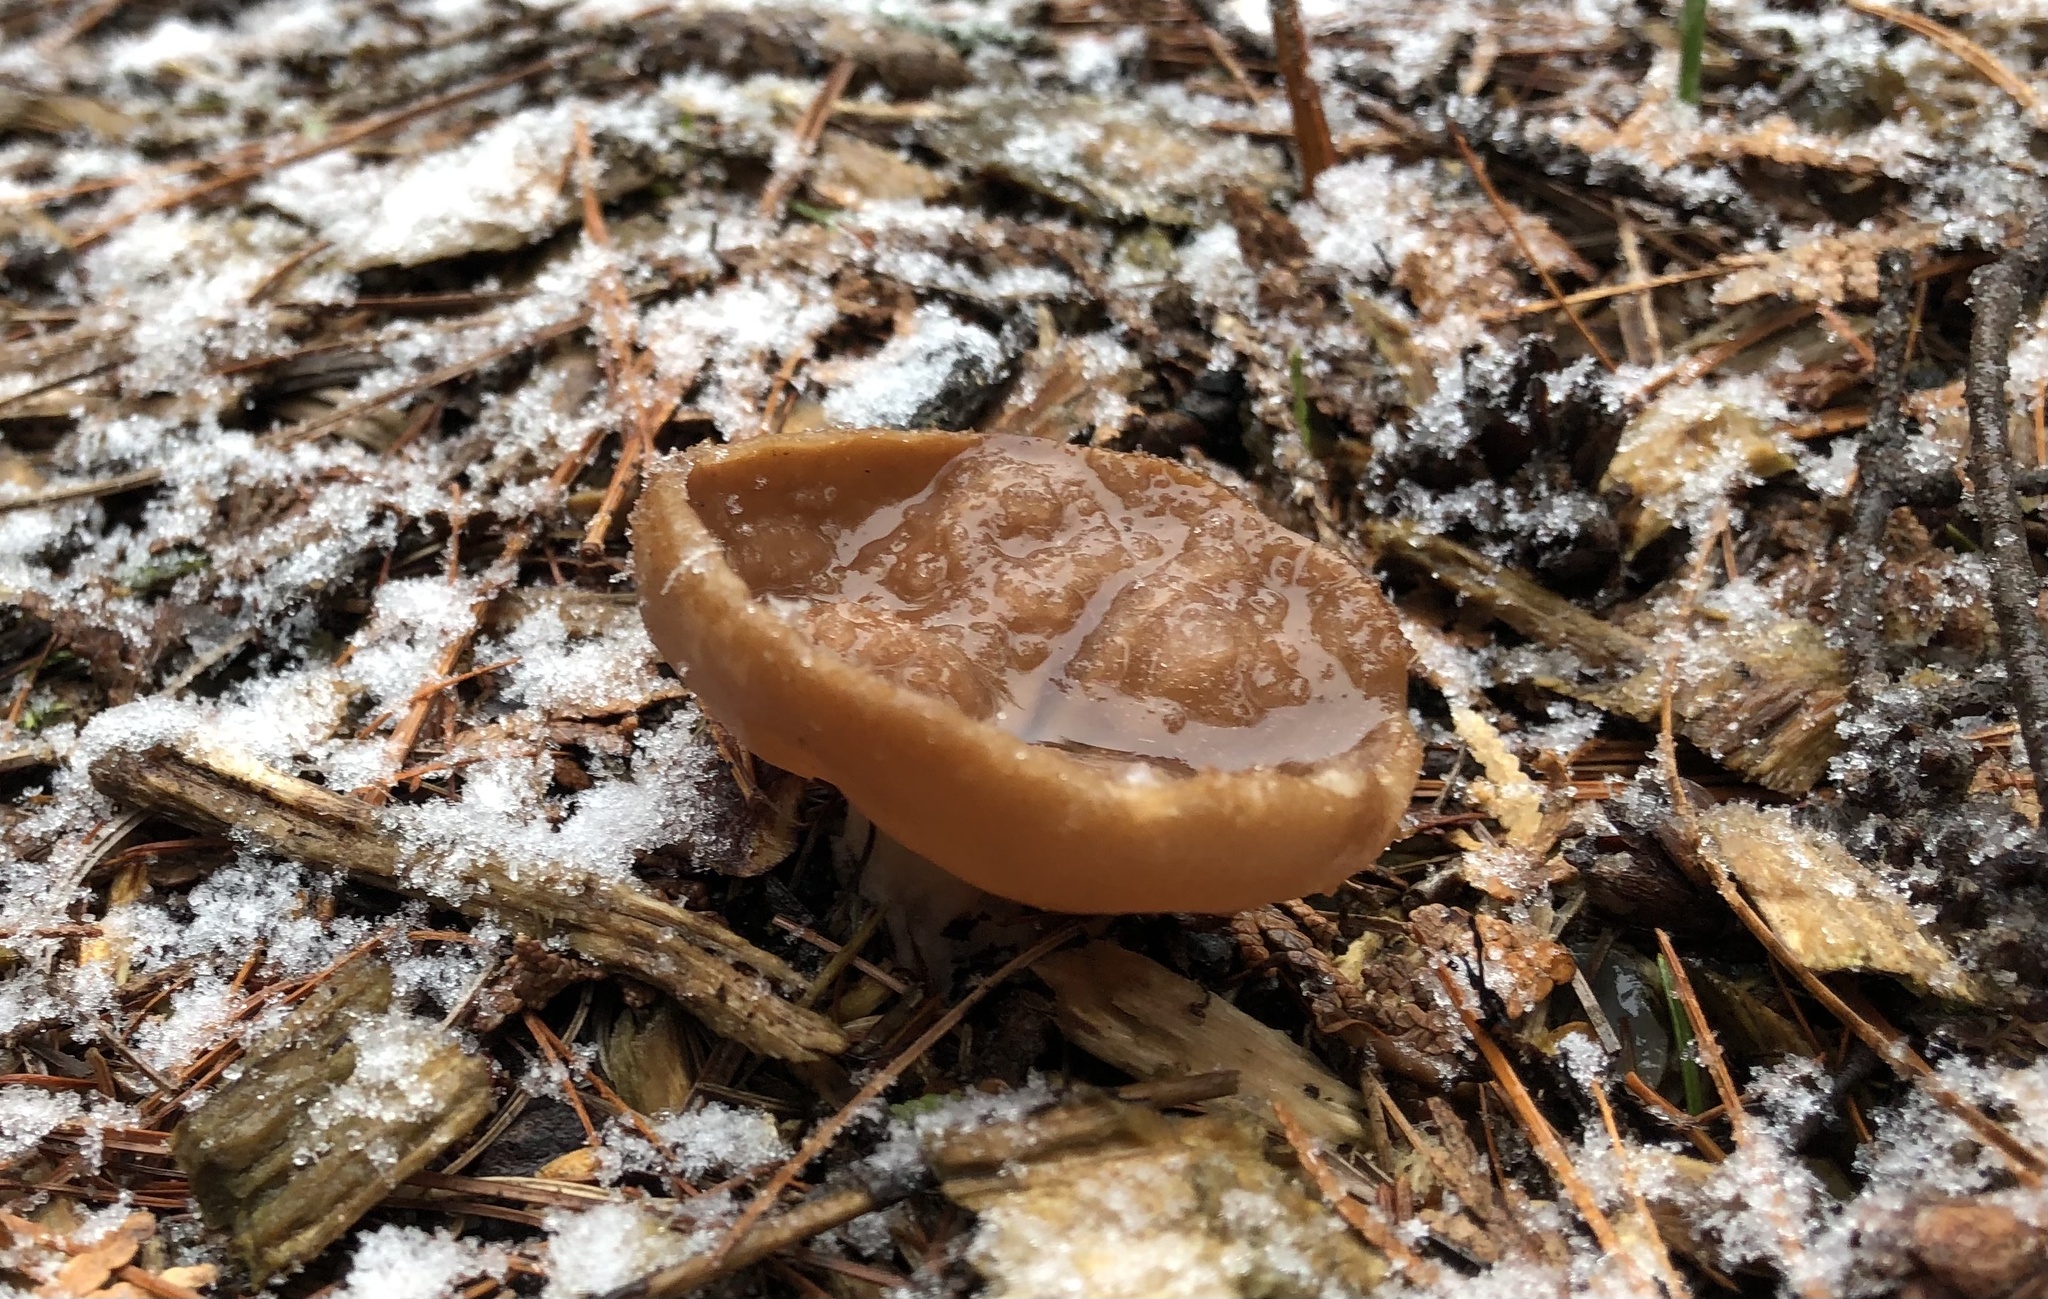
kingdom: Fungi
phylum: Ascomycota
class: Pezizomycetes
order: Pezizales
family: Discinaceae
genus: Discina
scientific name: Discina ancilis
